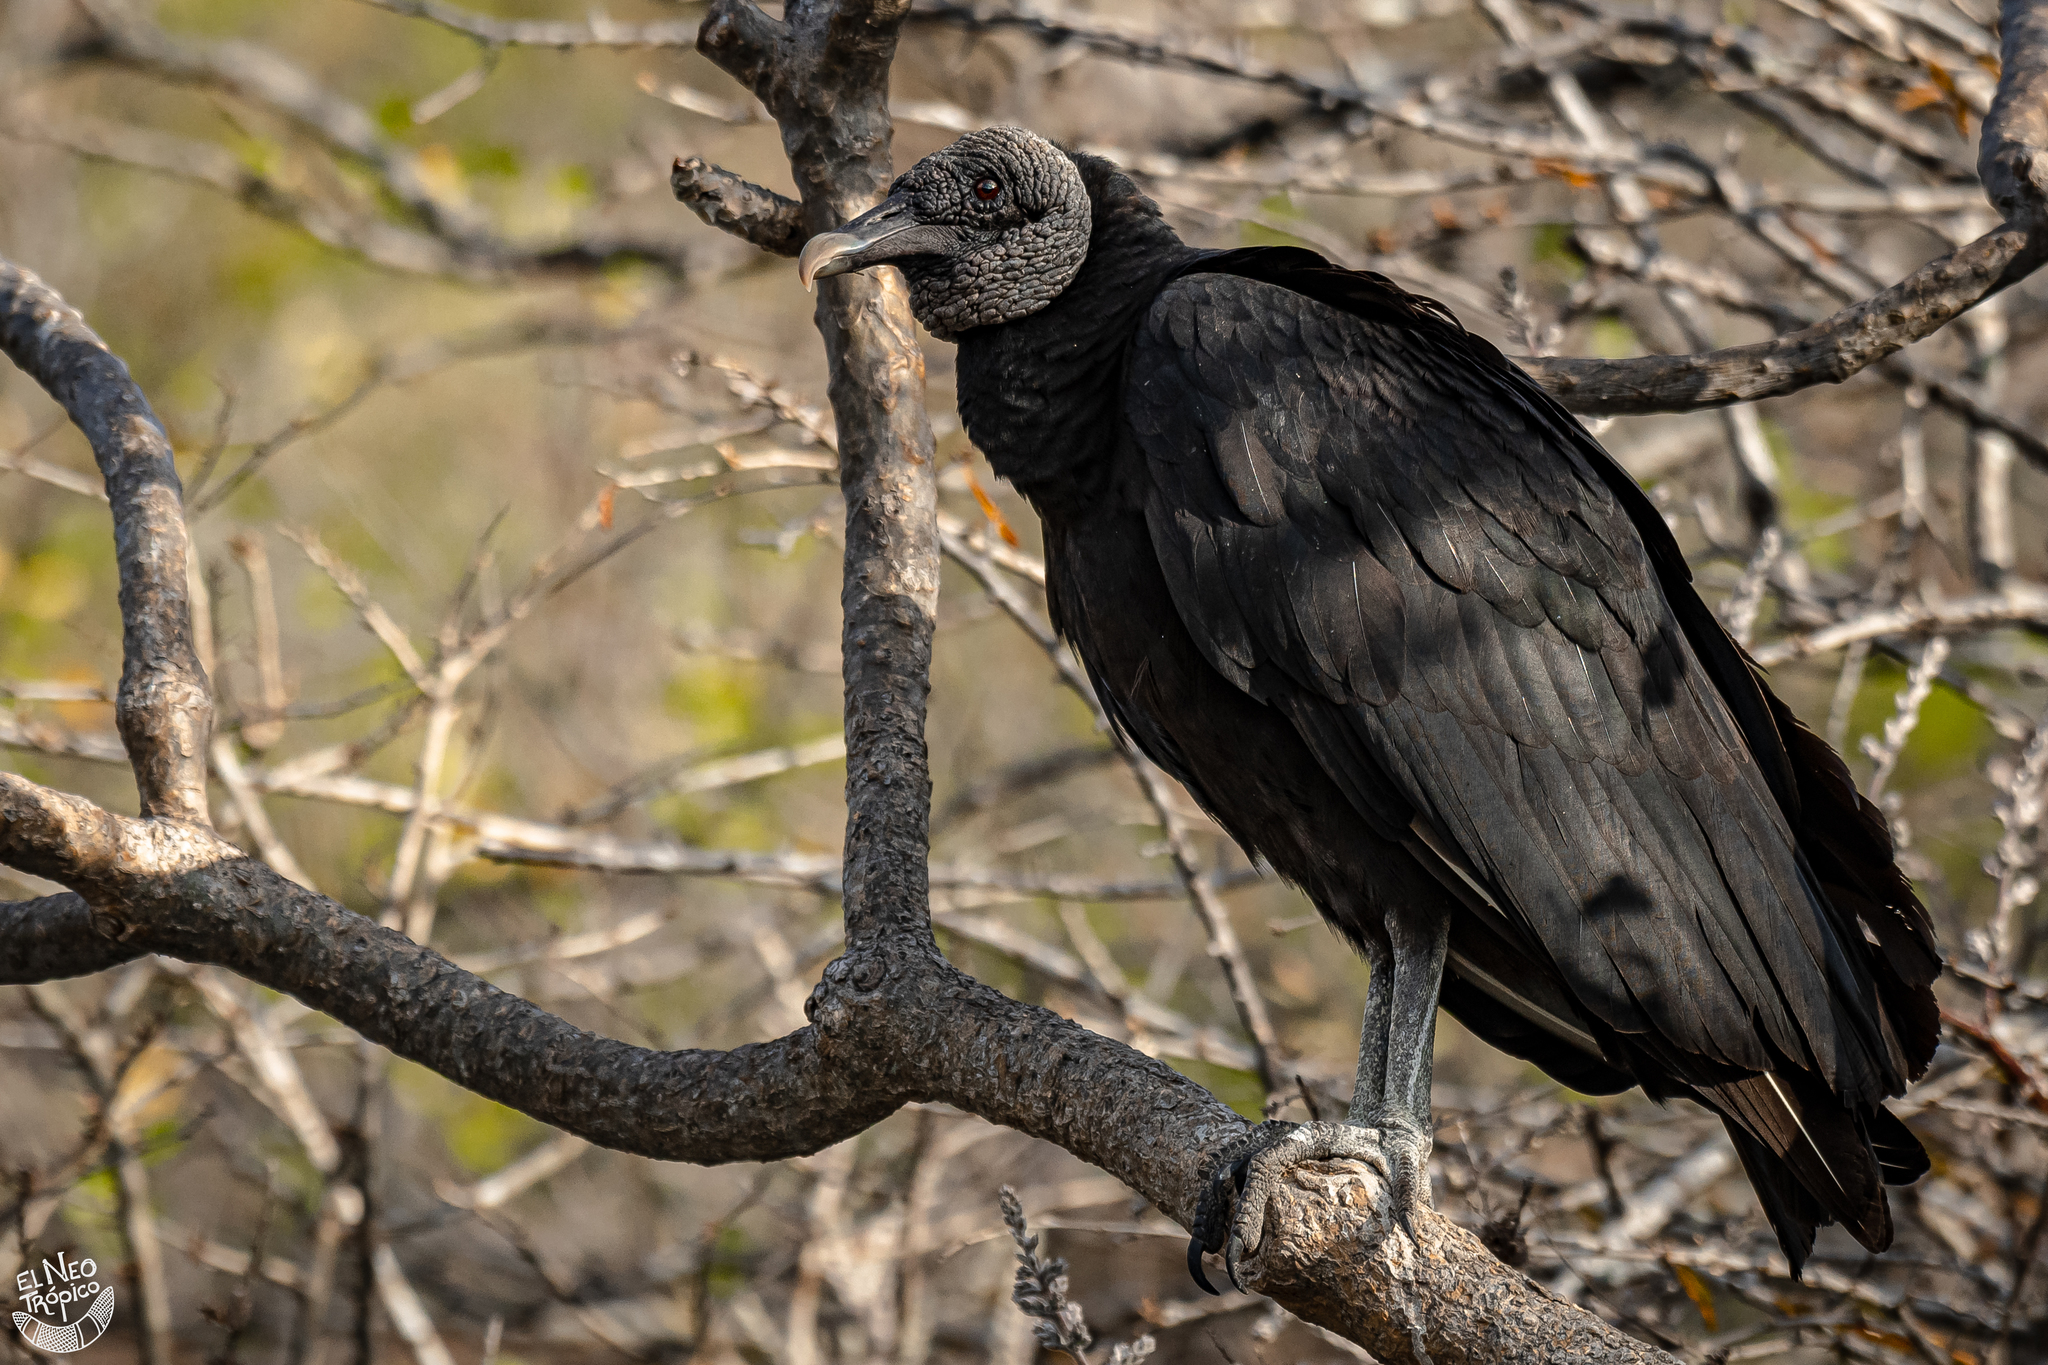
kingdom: Animalia
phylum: Chordata
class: Aves
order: Accipitriformes
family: Cathartidae
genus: Coragyps
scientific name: Coragyps atratus
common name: Black vulture
